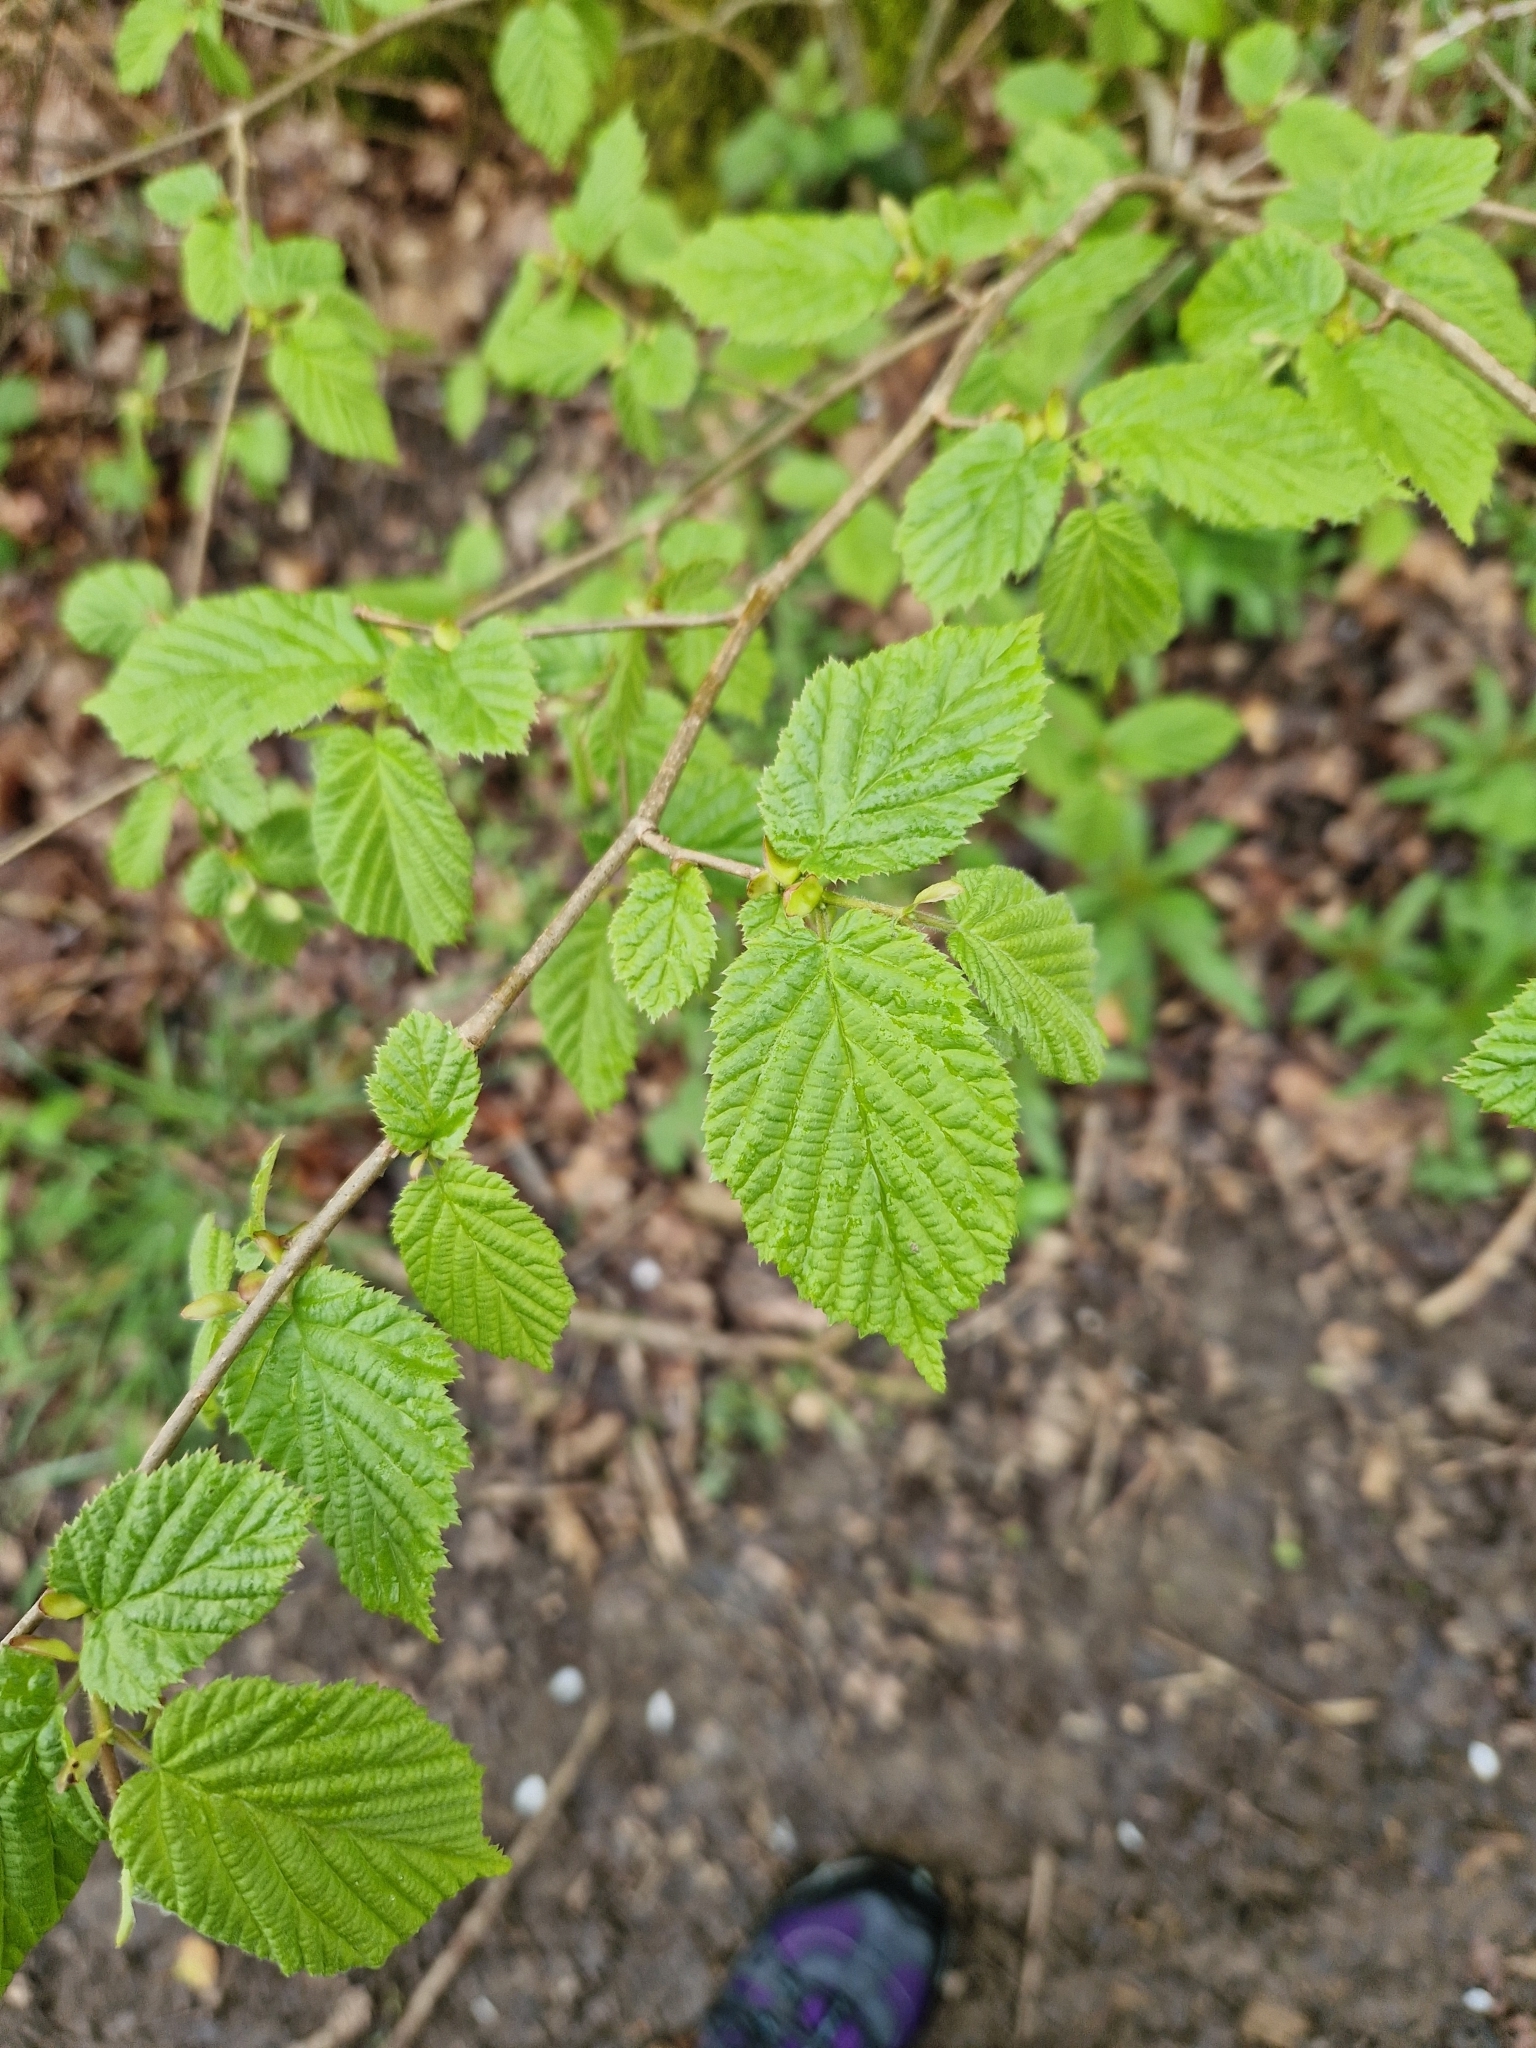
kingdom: Plantae
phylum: Tracheophyta
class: Magnoliopsida
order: Fagales
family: Betulaceae
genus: Corylus
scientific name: Corylus avellana
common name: European hazel
